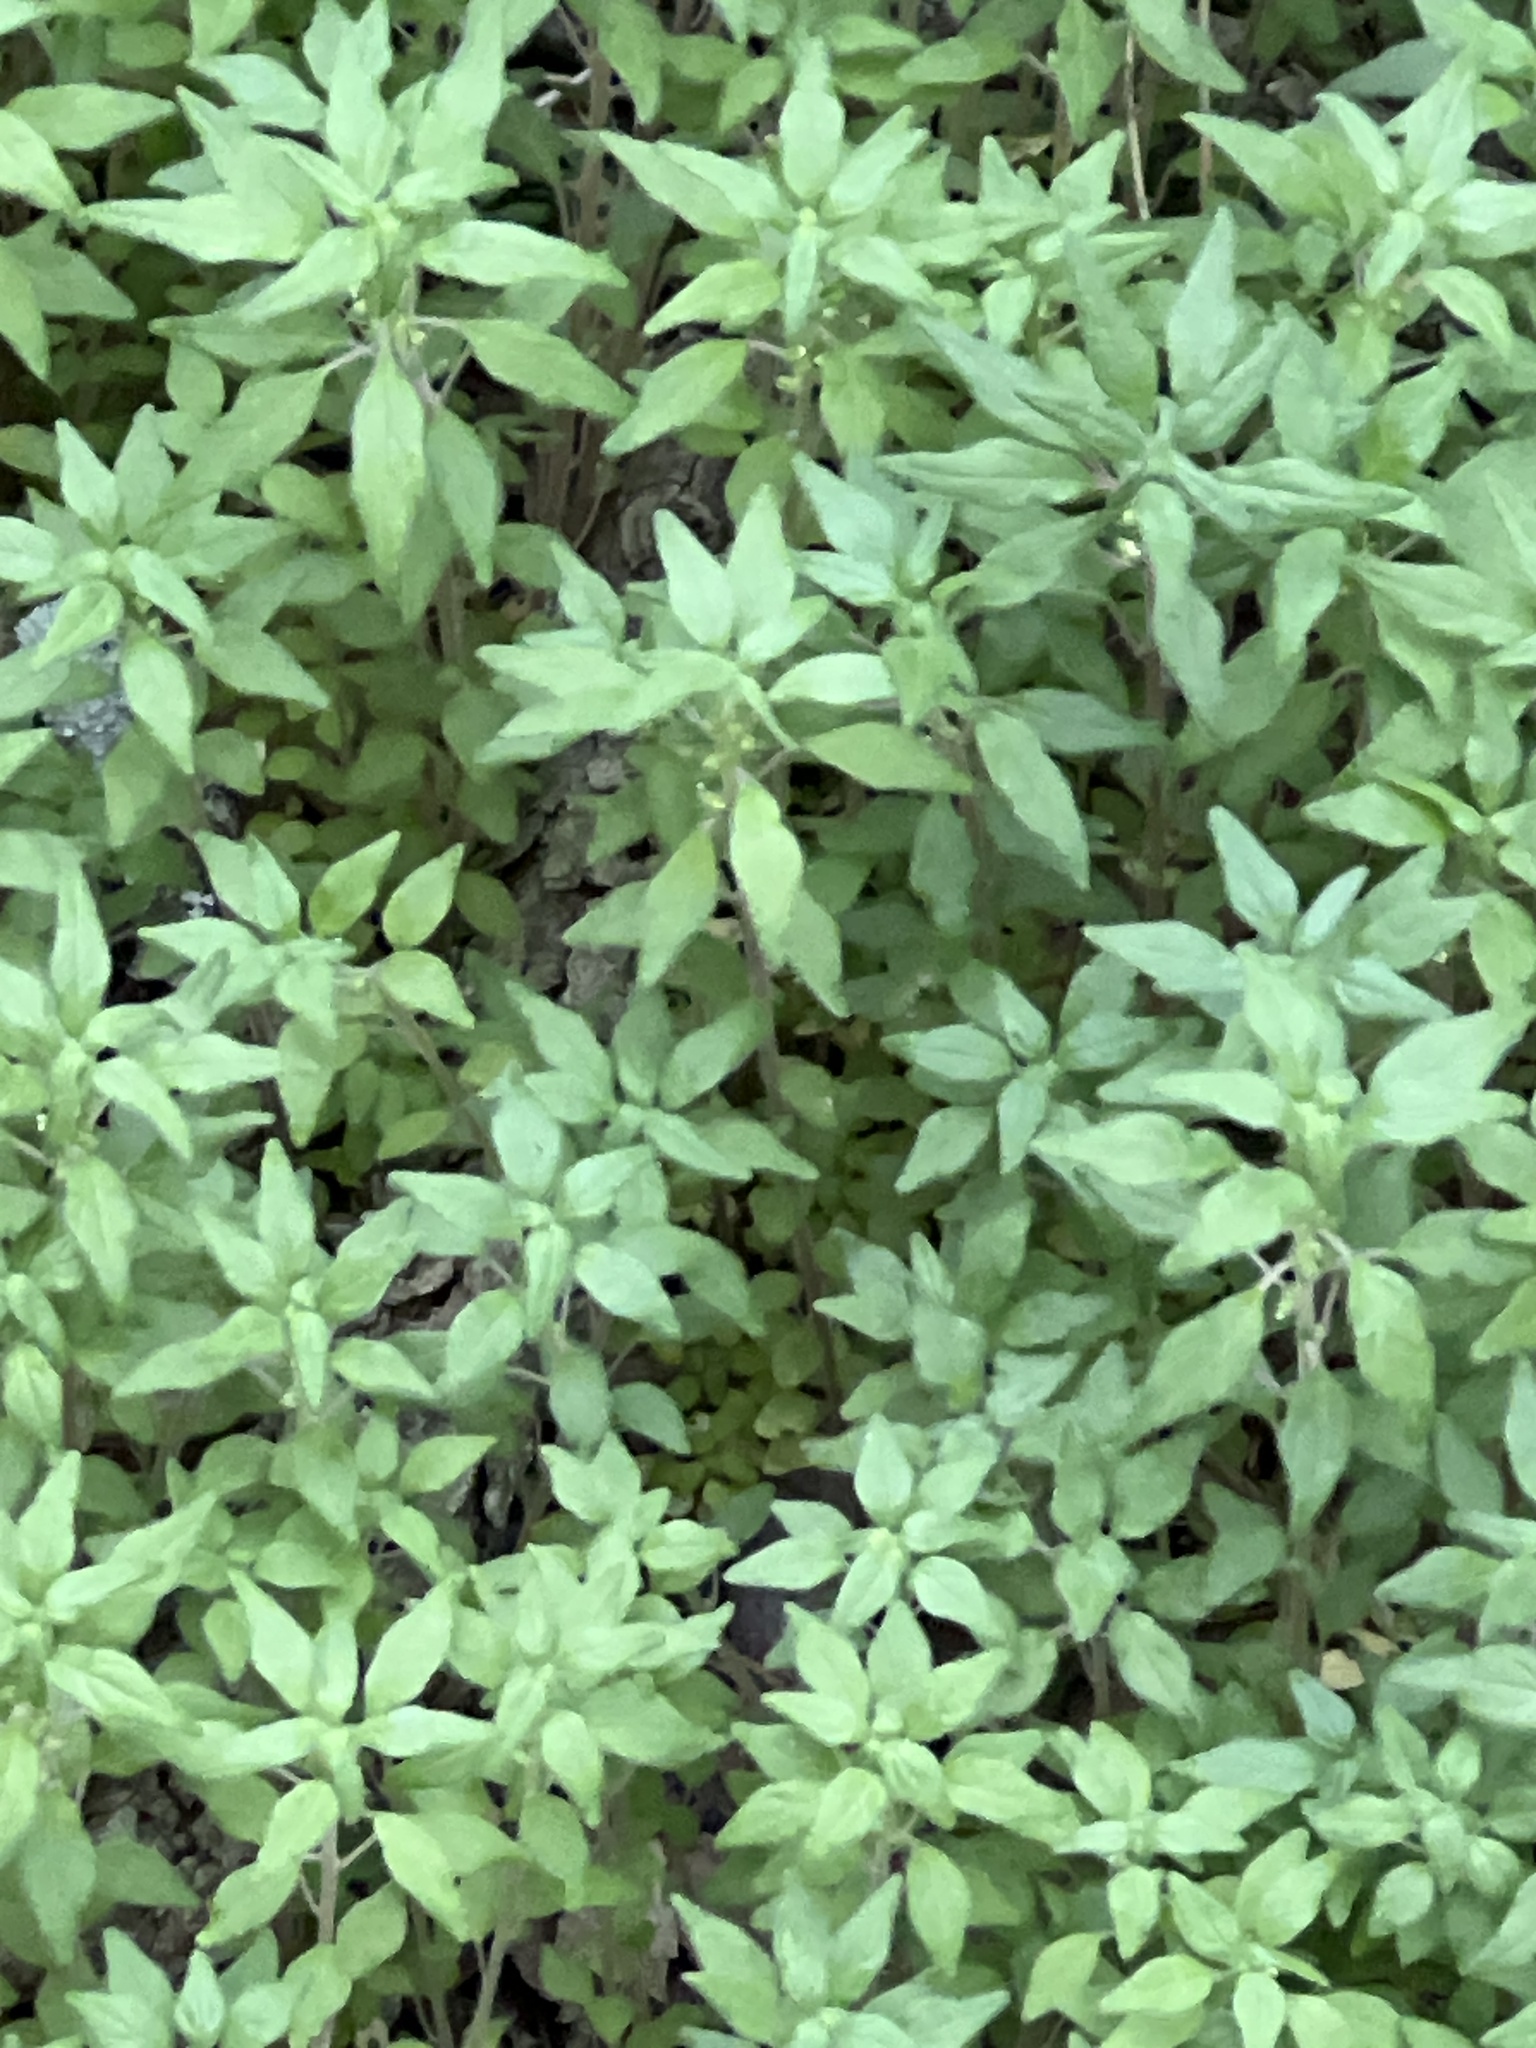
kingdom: Plantae
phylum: Tracheophyta
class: Magnoliopsida
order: Rosales
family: Urticaceae
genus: Parietaria
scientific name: Parietaria pensylvanica
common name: Pennsylvania pellitory
